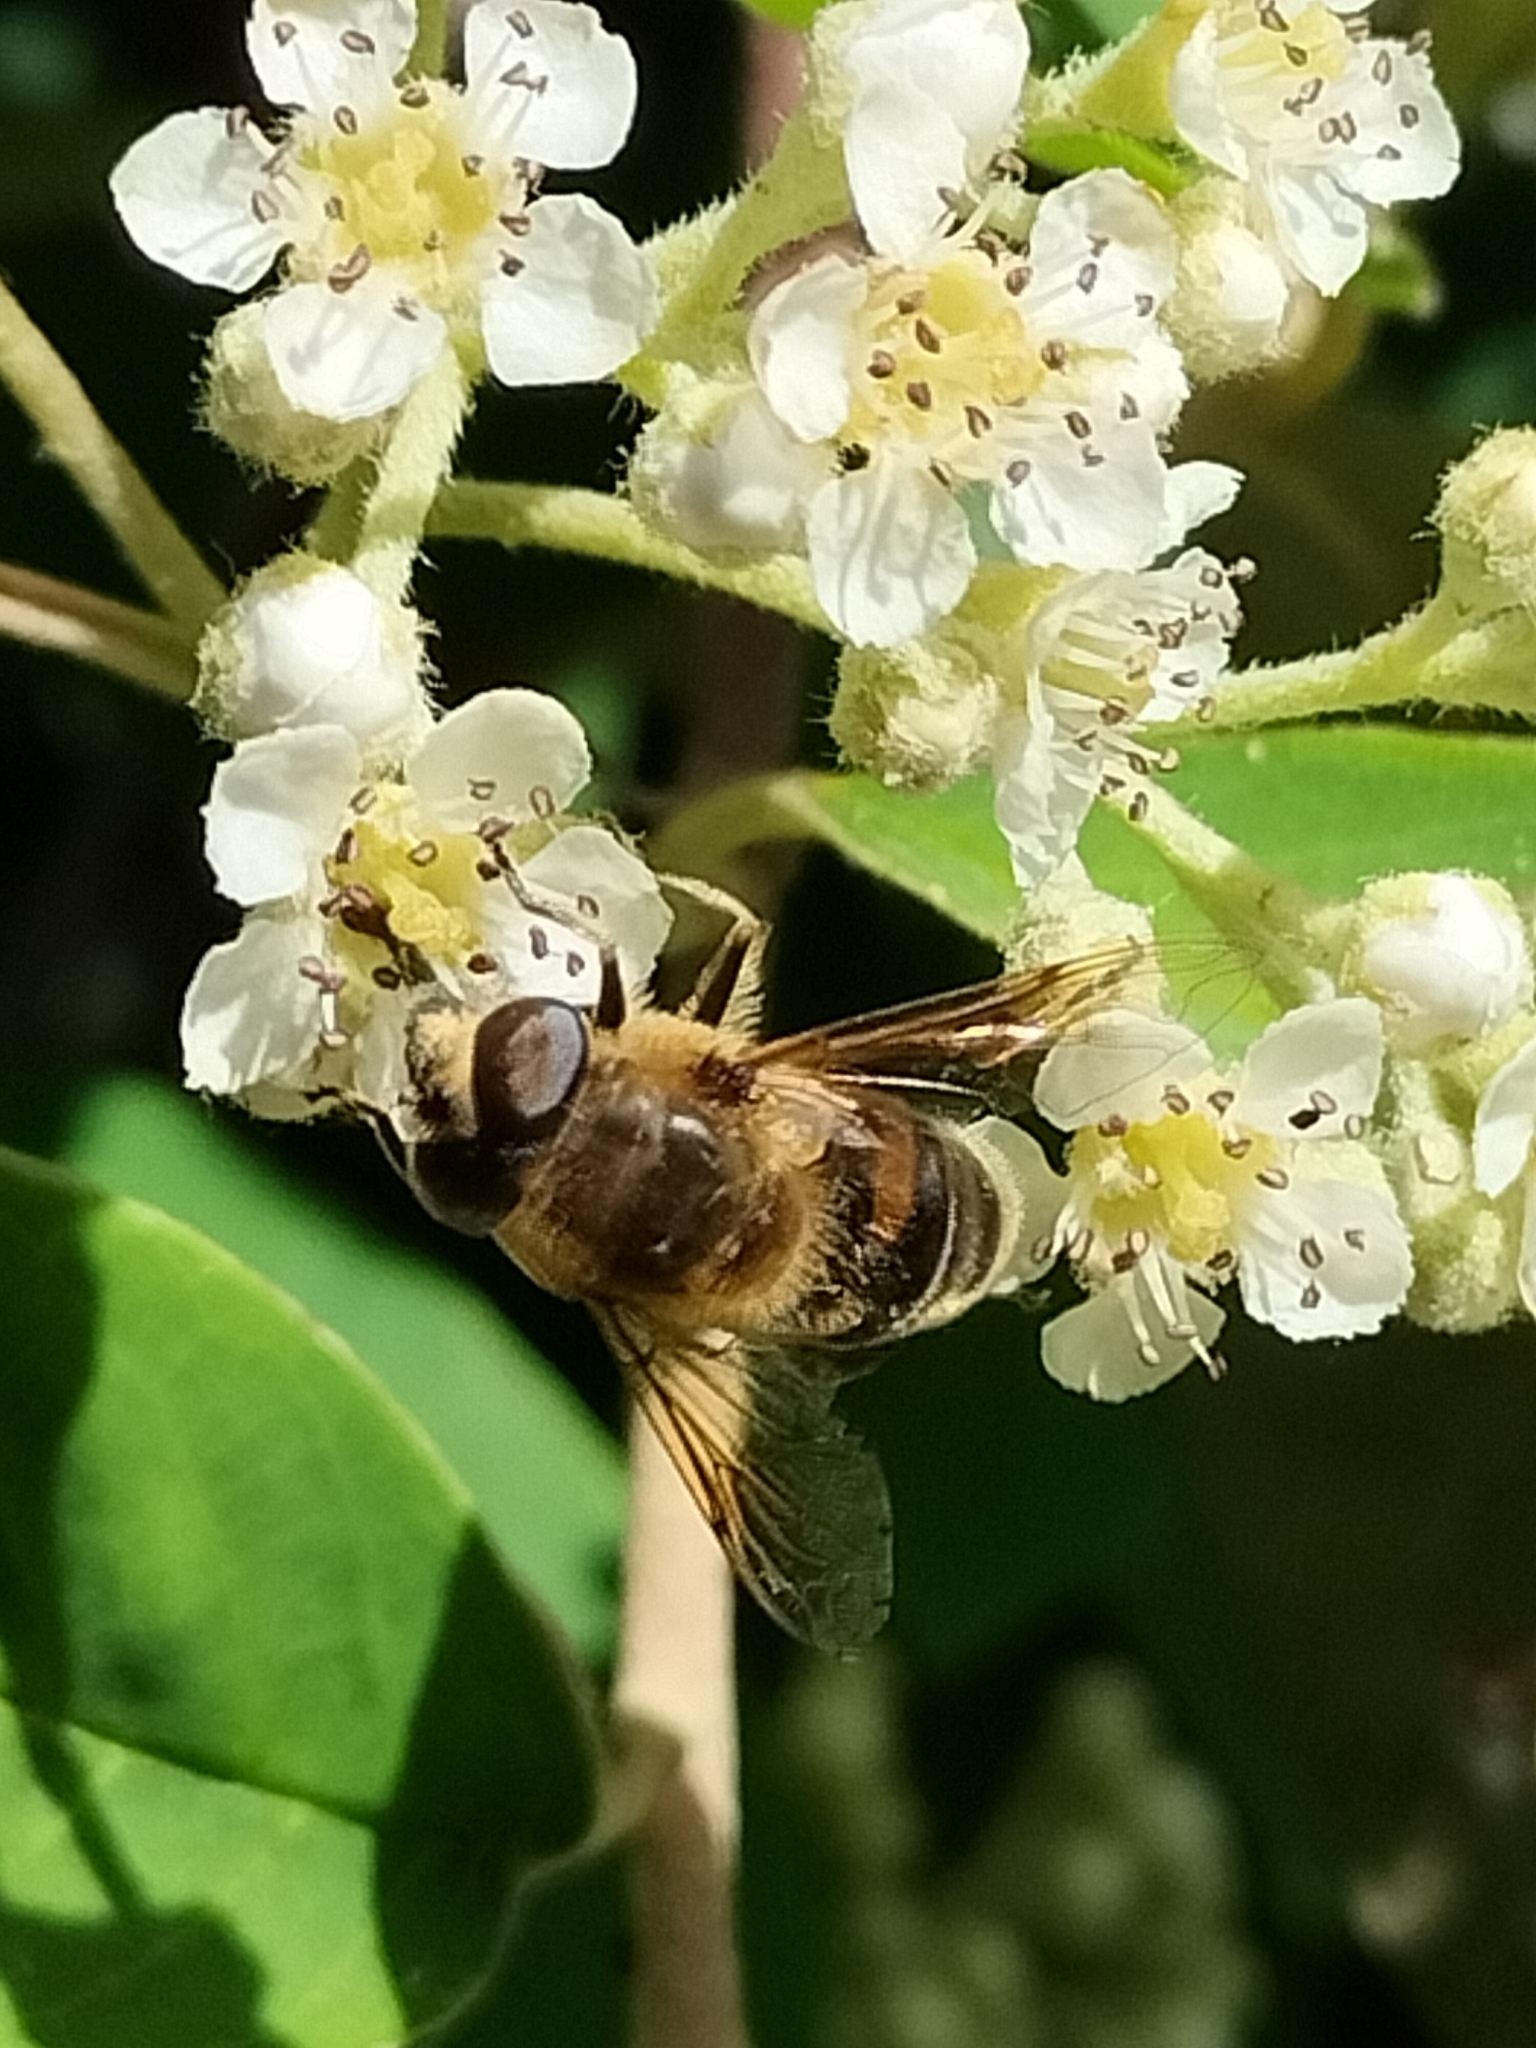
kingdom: Animalia
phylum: Arthropoda
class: Insecta
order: Diptera
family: Syrphidae
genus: Eristalis
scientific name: Eristalis tenax
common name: Drone fly
